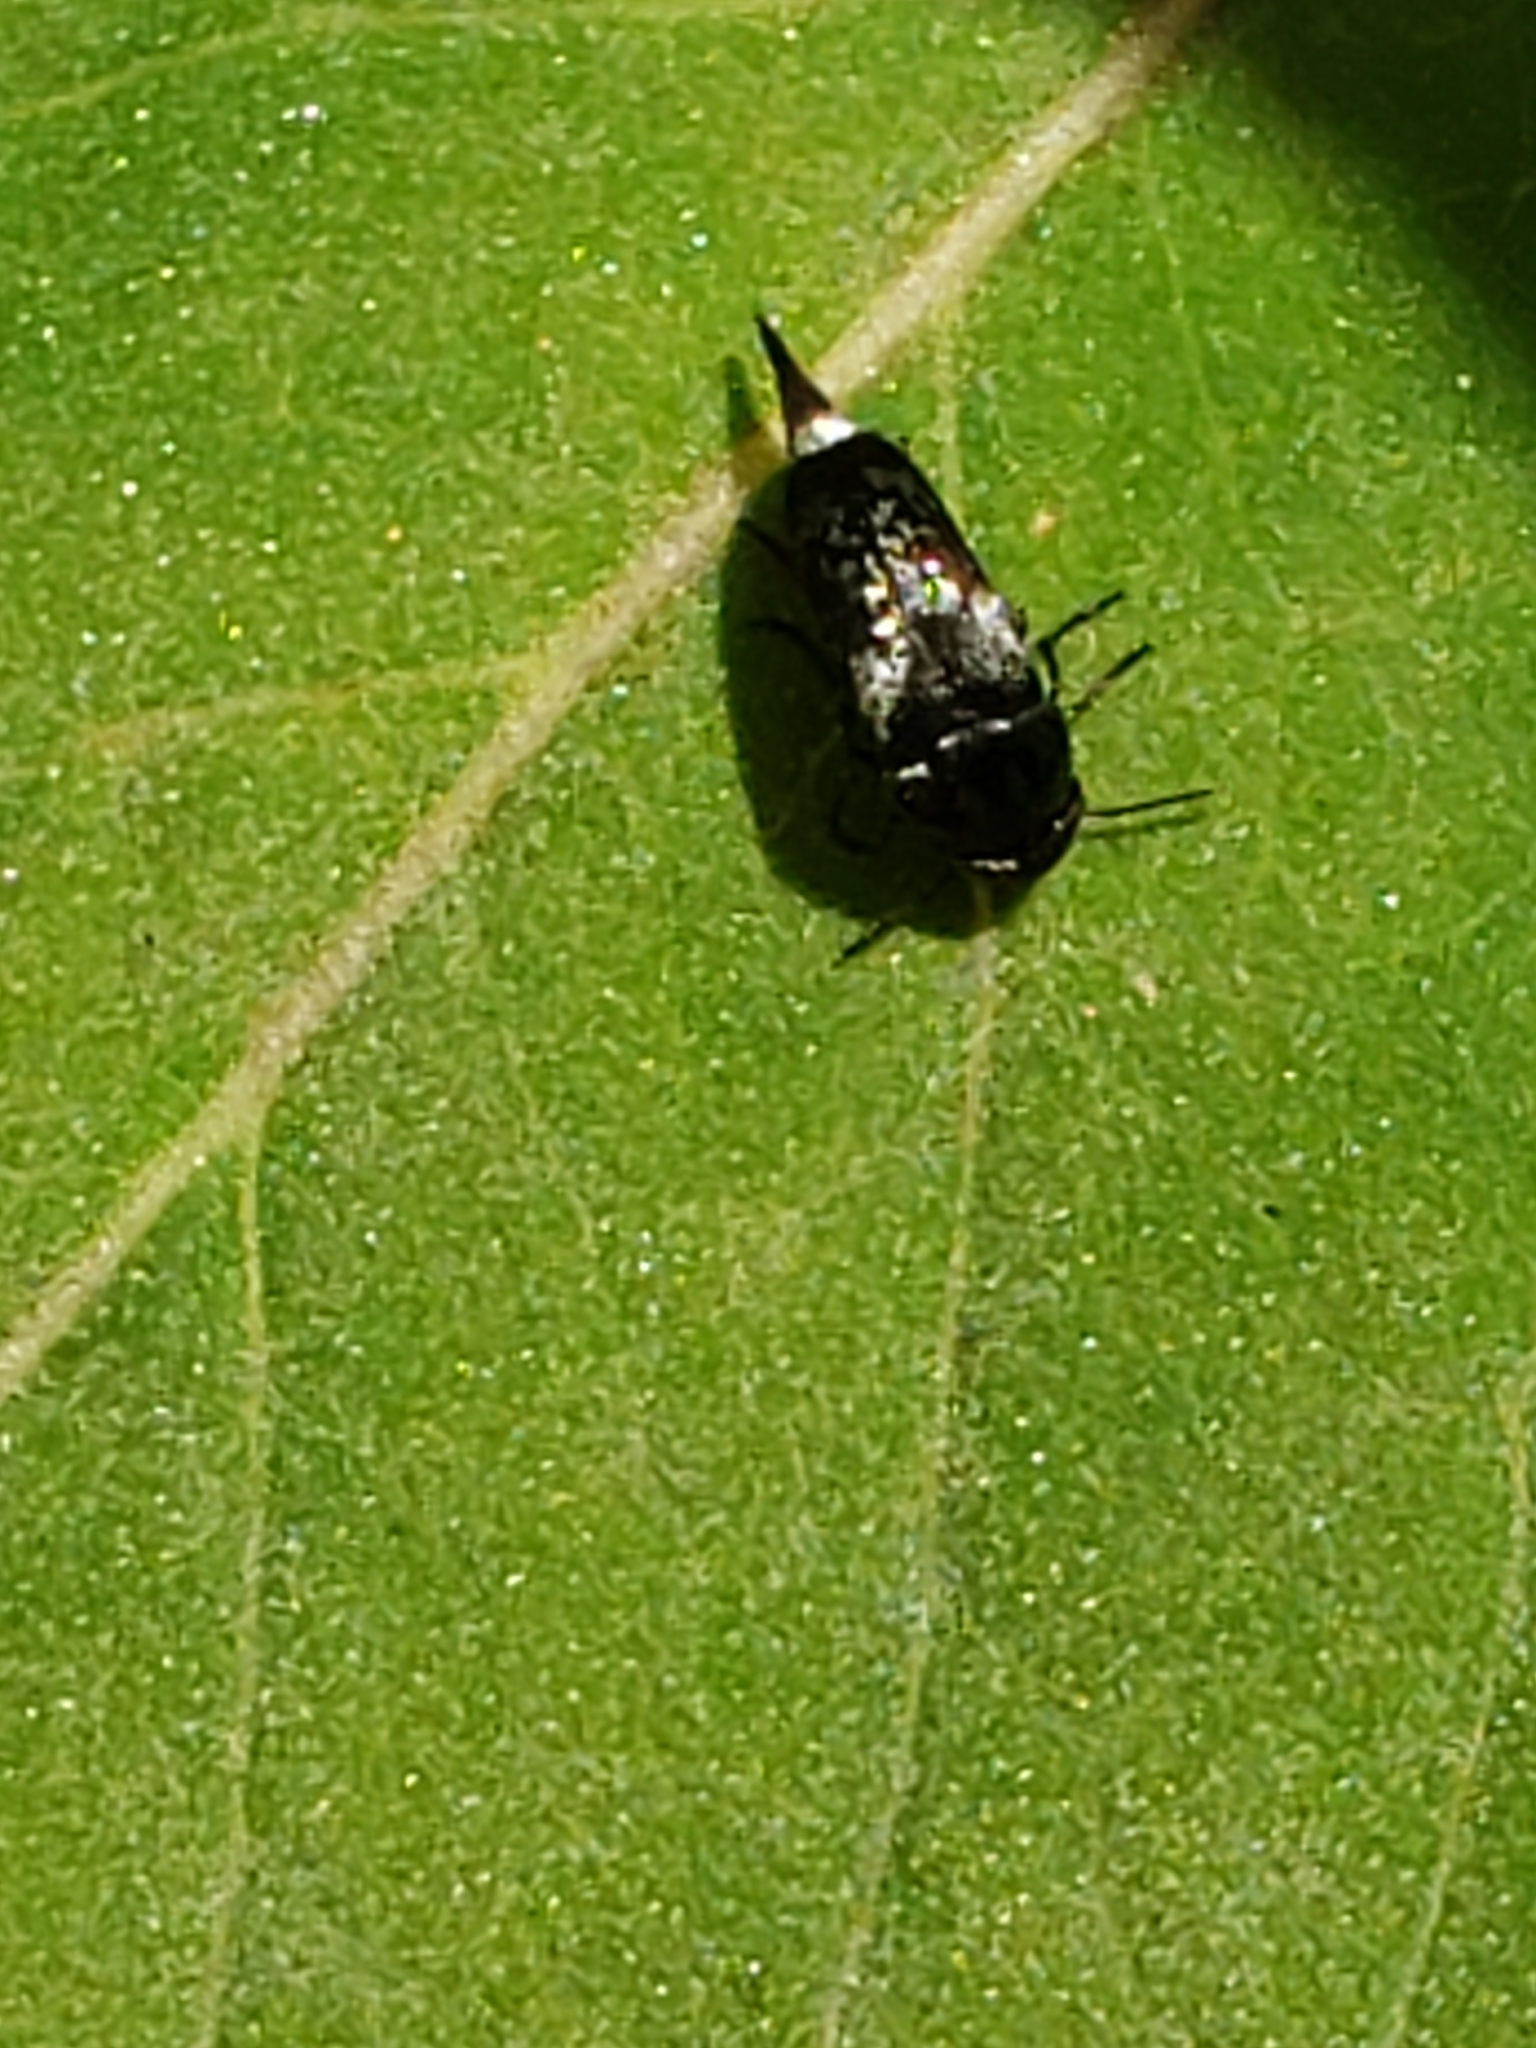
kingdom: Animalia
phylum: Arthropoda
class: Insecta
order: Coleoptera
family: Mordellidae
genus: Mordella
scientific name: Mordella marginata
